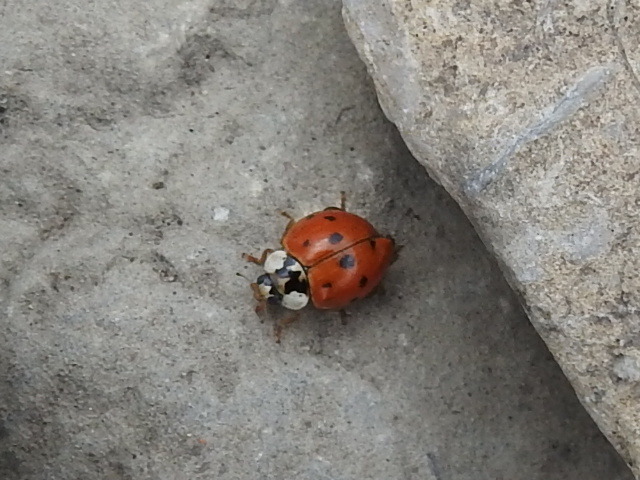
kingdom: Animalia
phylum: Arthropoda
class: Insecta
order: Coleoptera
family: Coccinellidae
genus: Harmonia
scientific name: Harmonia axyridis
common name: Harlequin ladybird
